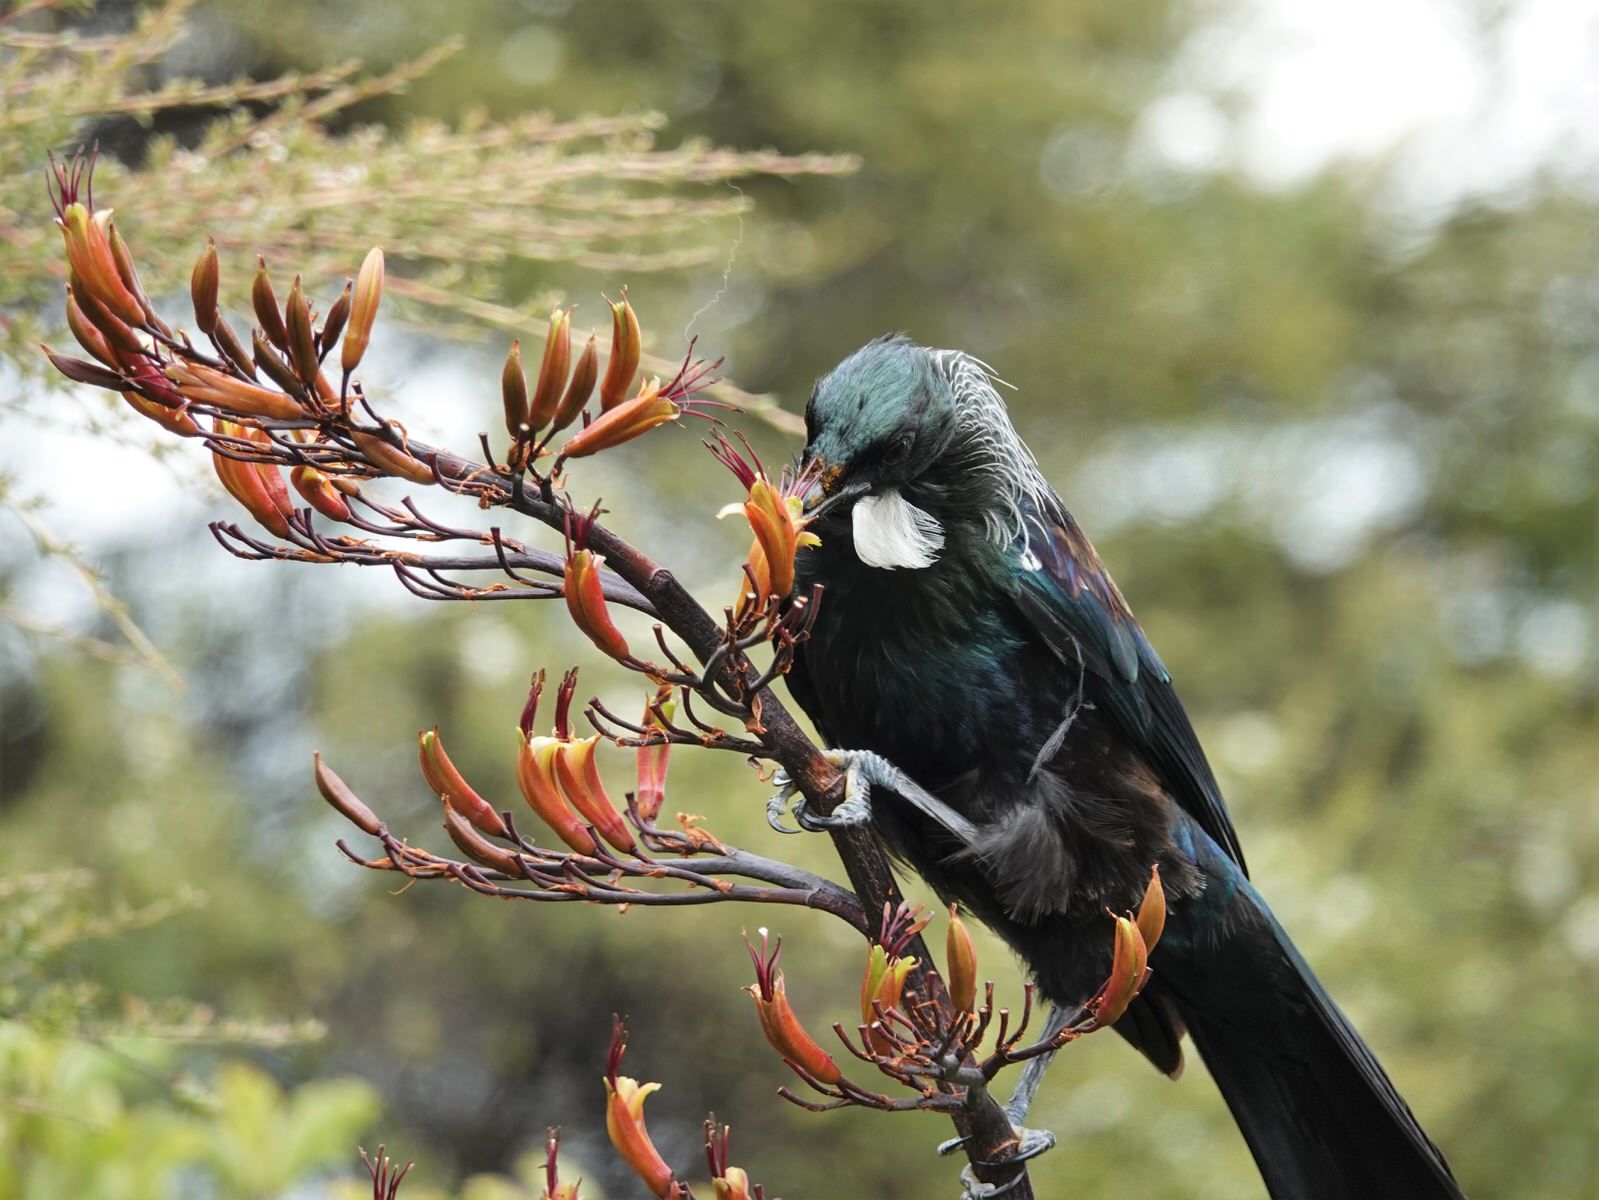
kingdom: Animalia
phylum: Chordata
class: Aves
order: Passeriformes
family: Meliphagidae
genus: Prosthemadera
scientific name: Prosthemadera novaeseelandiae
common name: Tui
